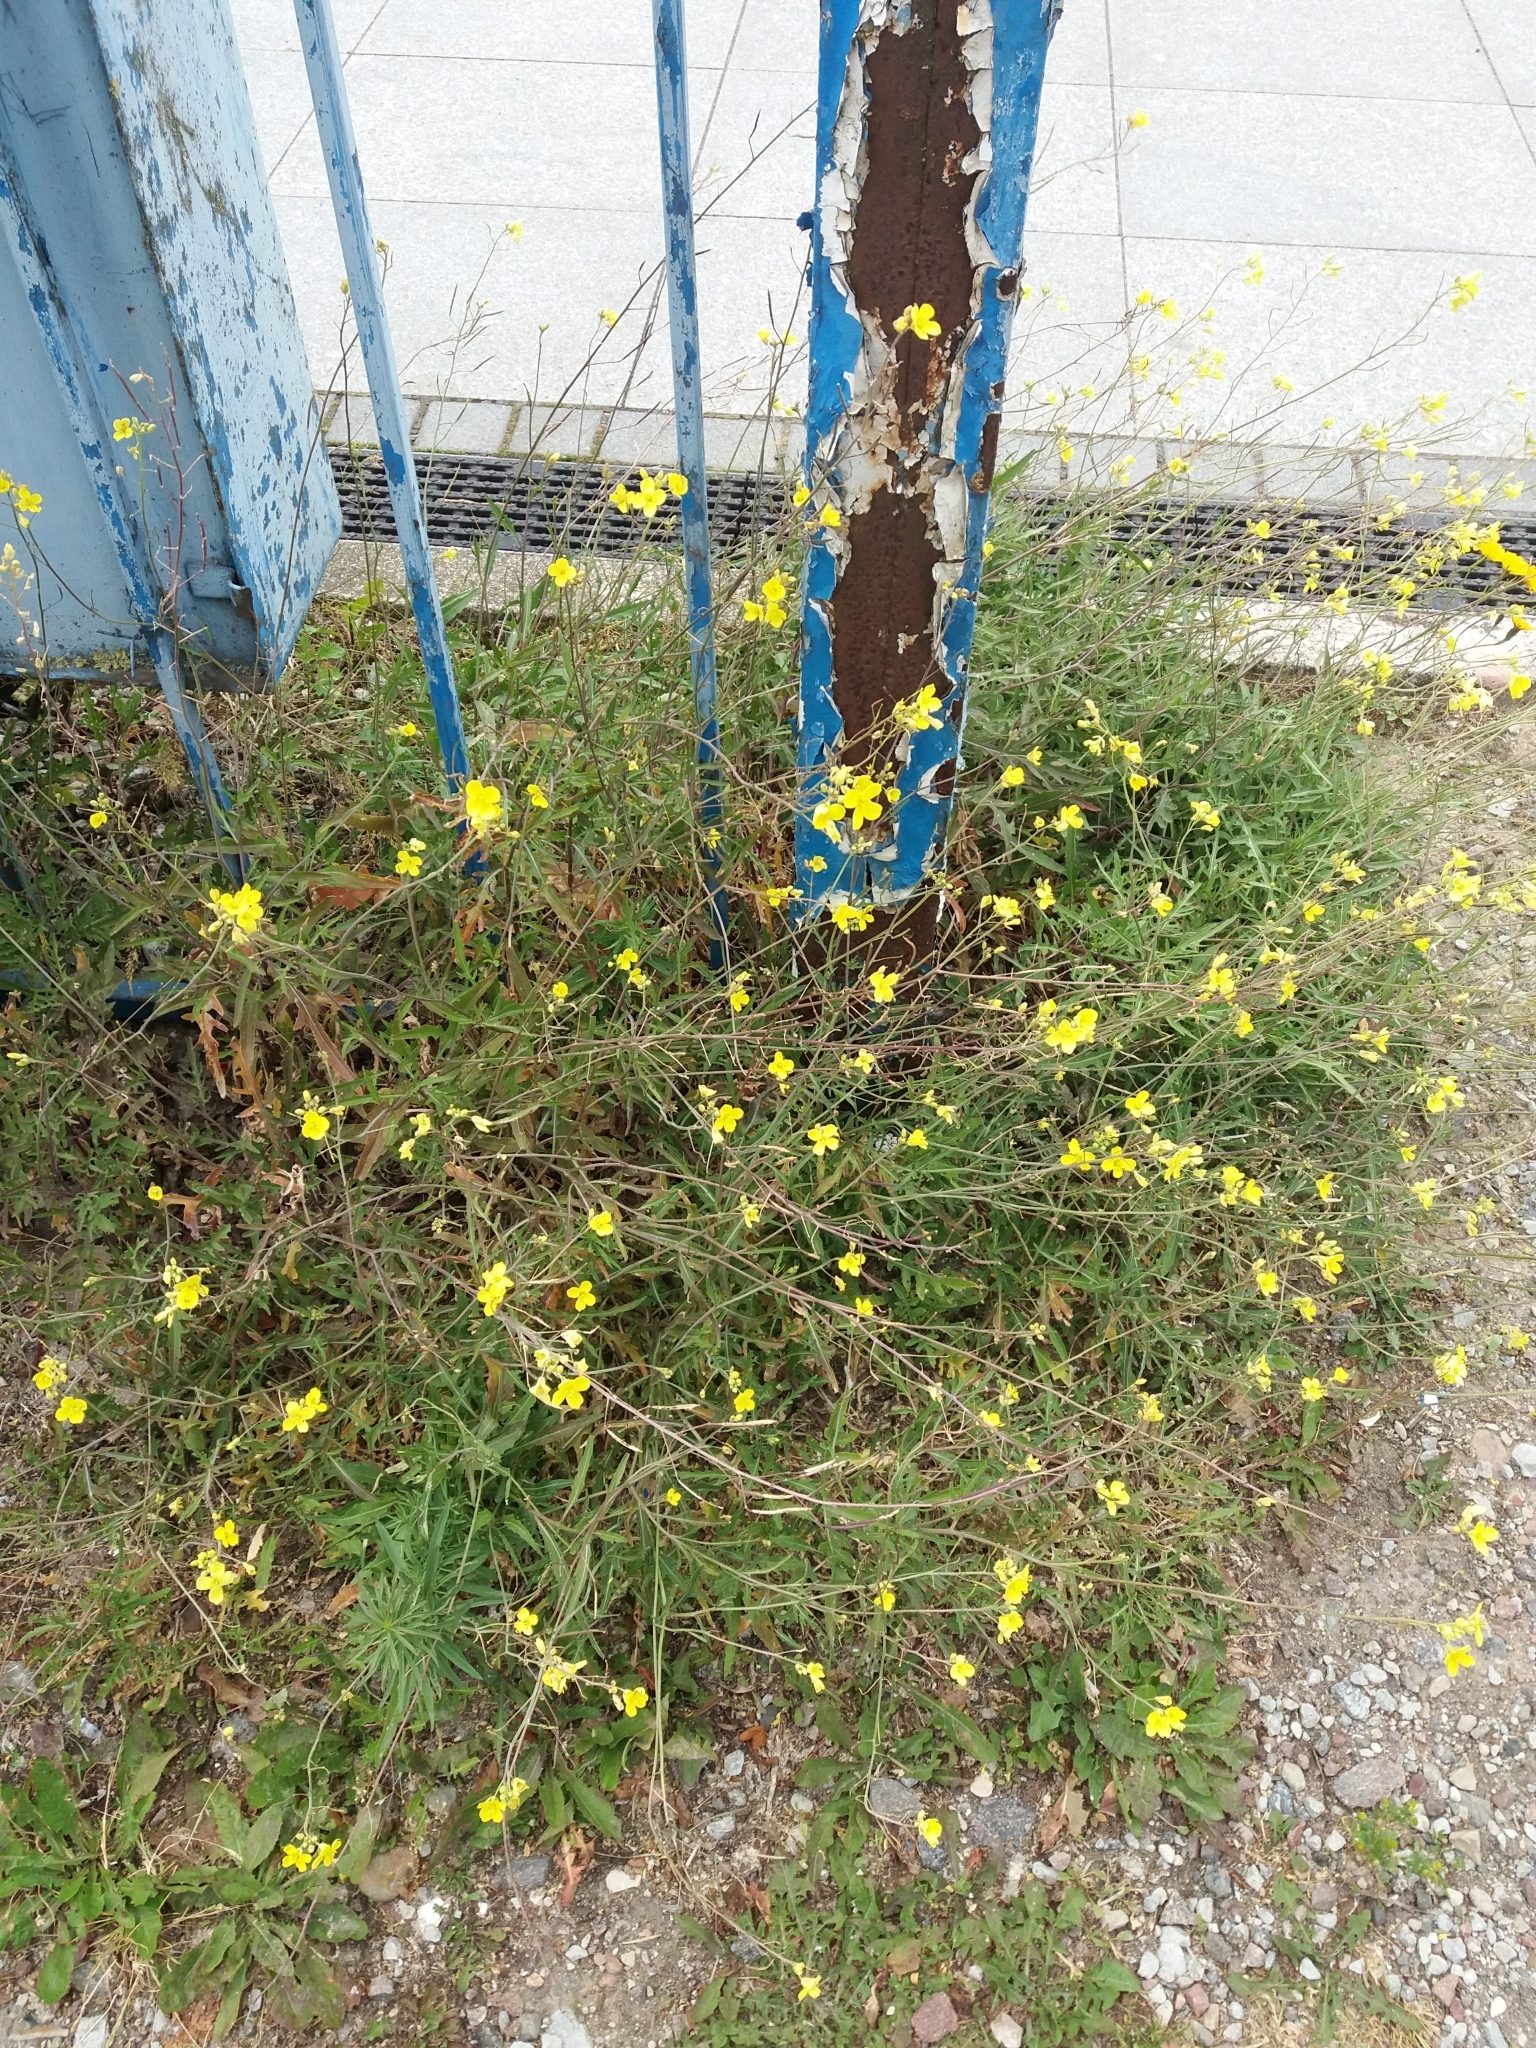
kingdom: Plantae
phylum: Tracheophyta
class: Magnoliopsida
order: Brassicales
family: Brassicaceae
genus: Diplotaxis
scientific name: Diplotaxis tenuifolia
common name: Perennial wall-rocket
